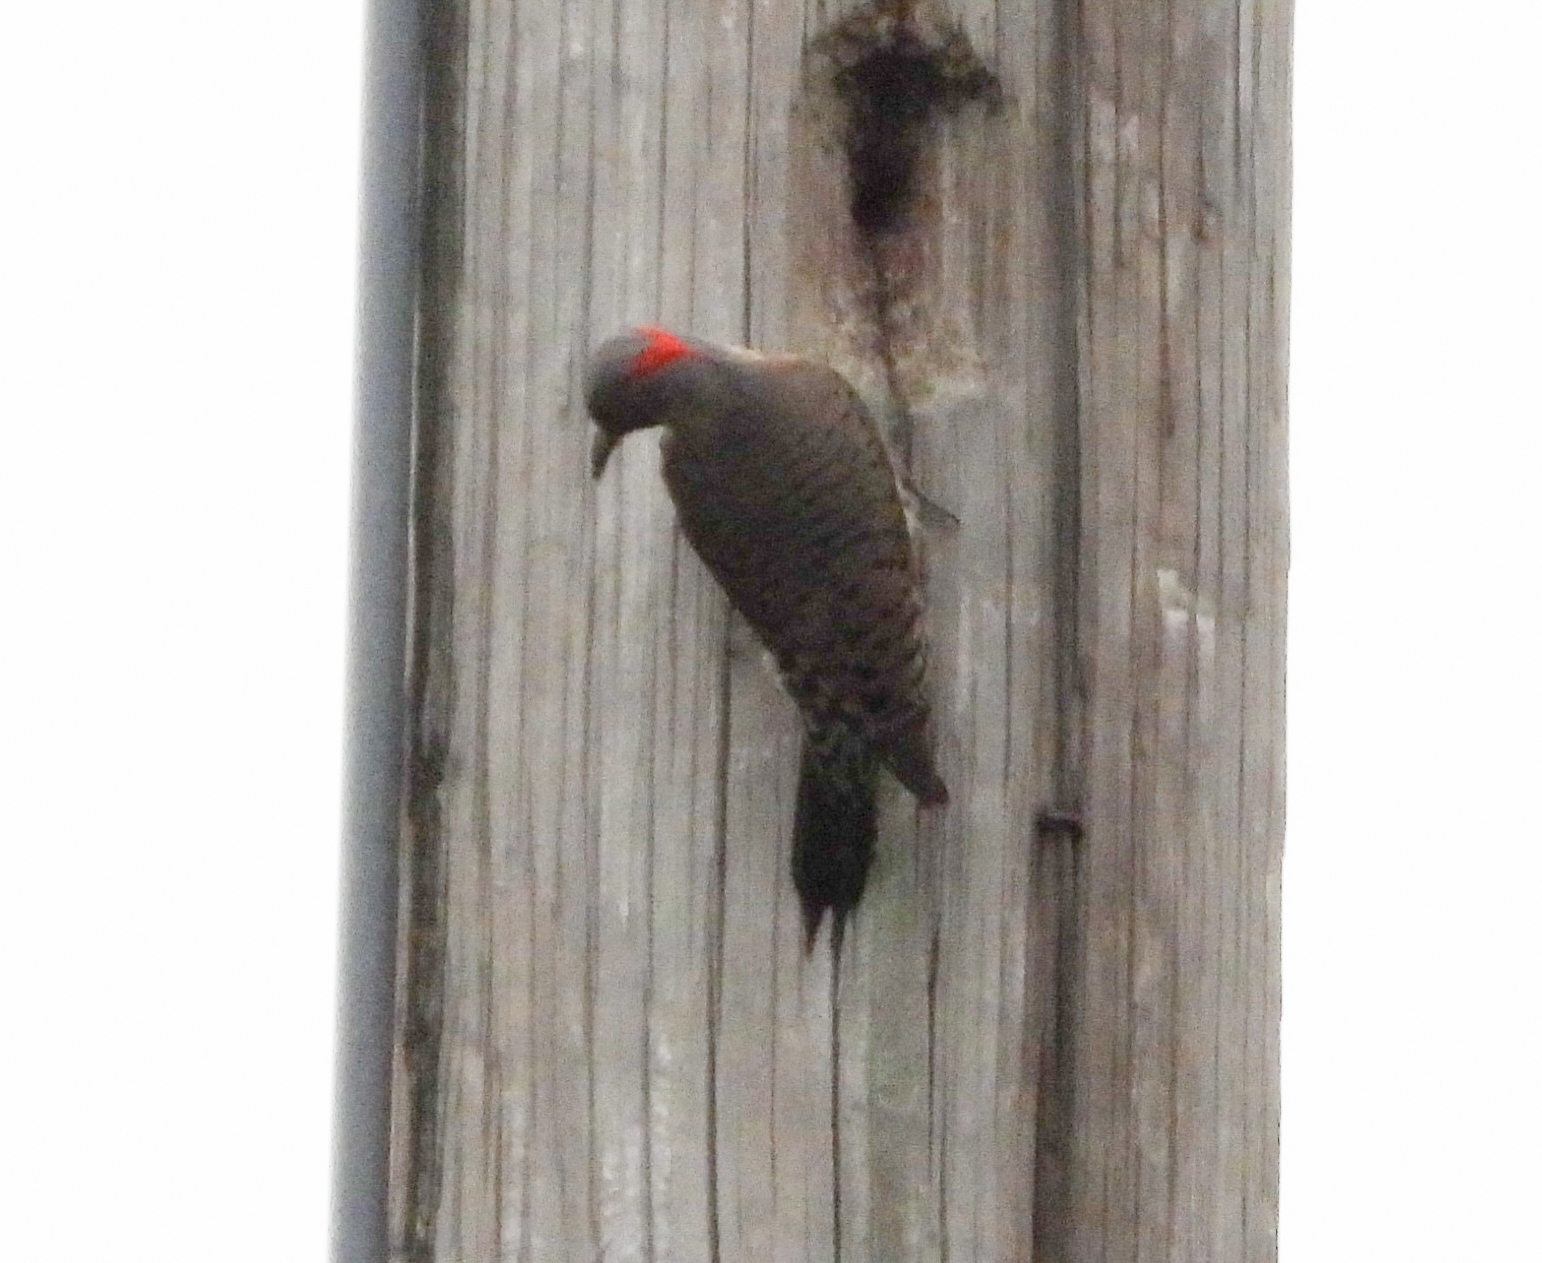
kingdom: Animalia
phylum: Chordata
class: Aves
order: Piciformes
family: Picidae
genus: Colaptes
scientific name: Colaptes auratus
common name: Northern flicker
